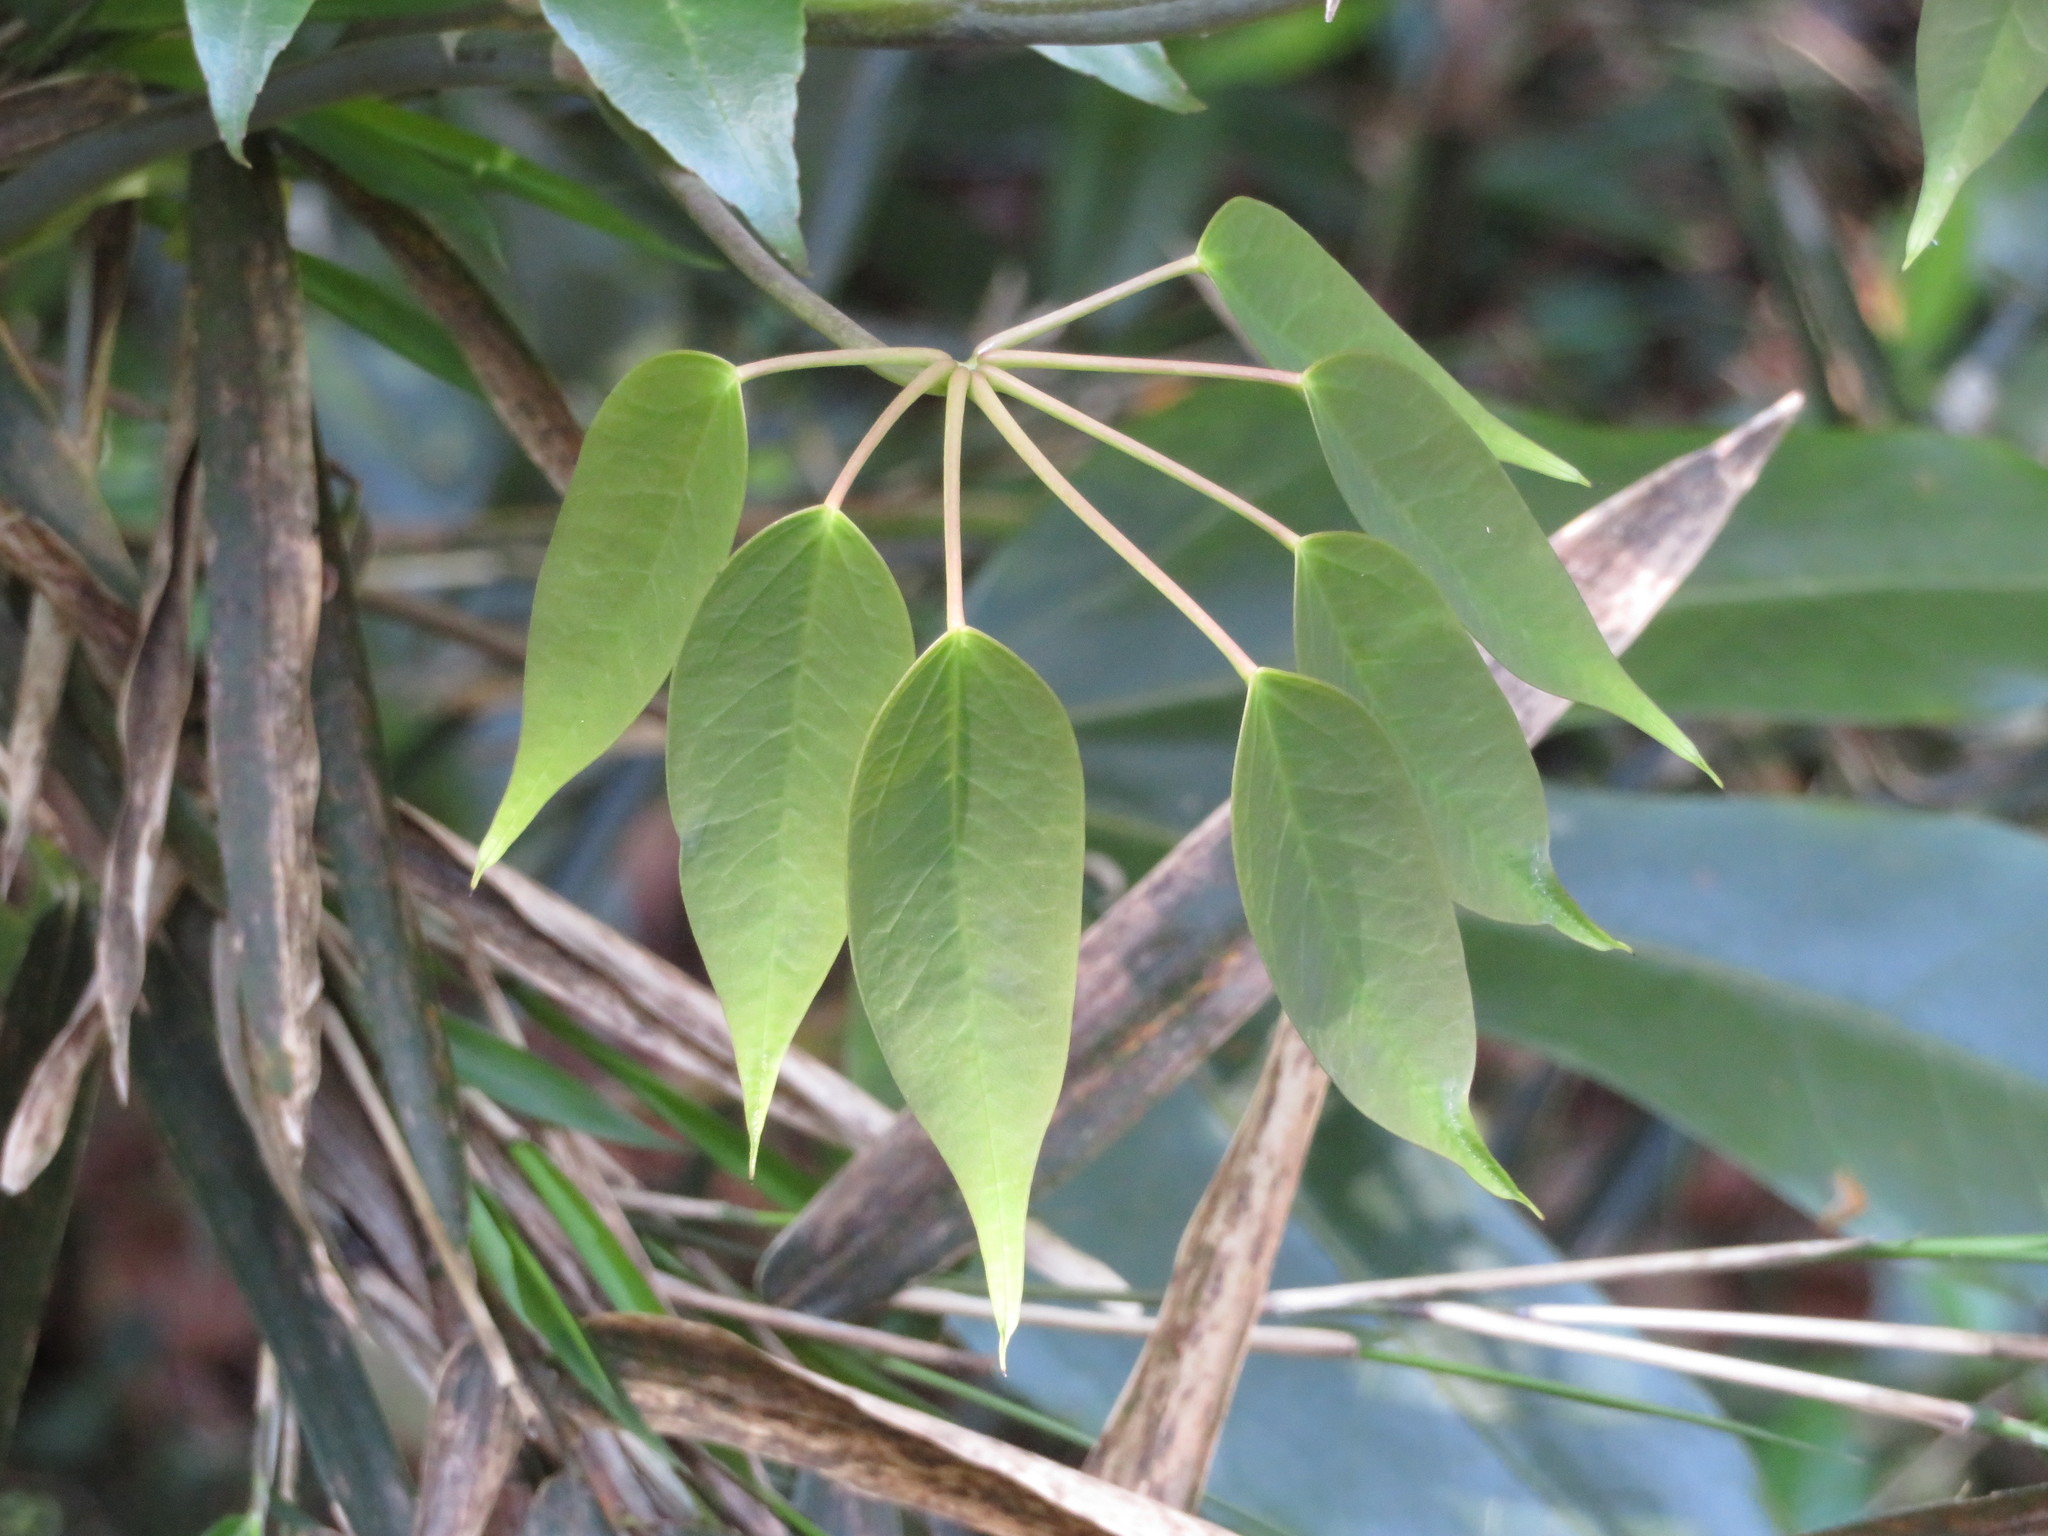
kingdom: Plantae
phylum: Tracheophyta
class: Magnoliopsida
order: Ranunculales
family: Lardizabalaceae
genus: Stauntonia
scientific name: Stauntonia hexaphylla
